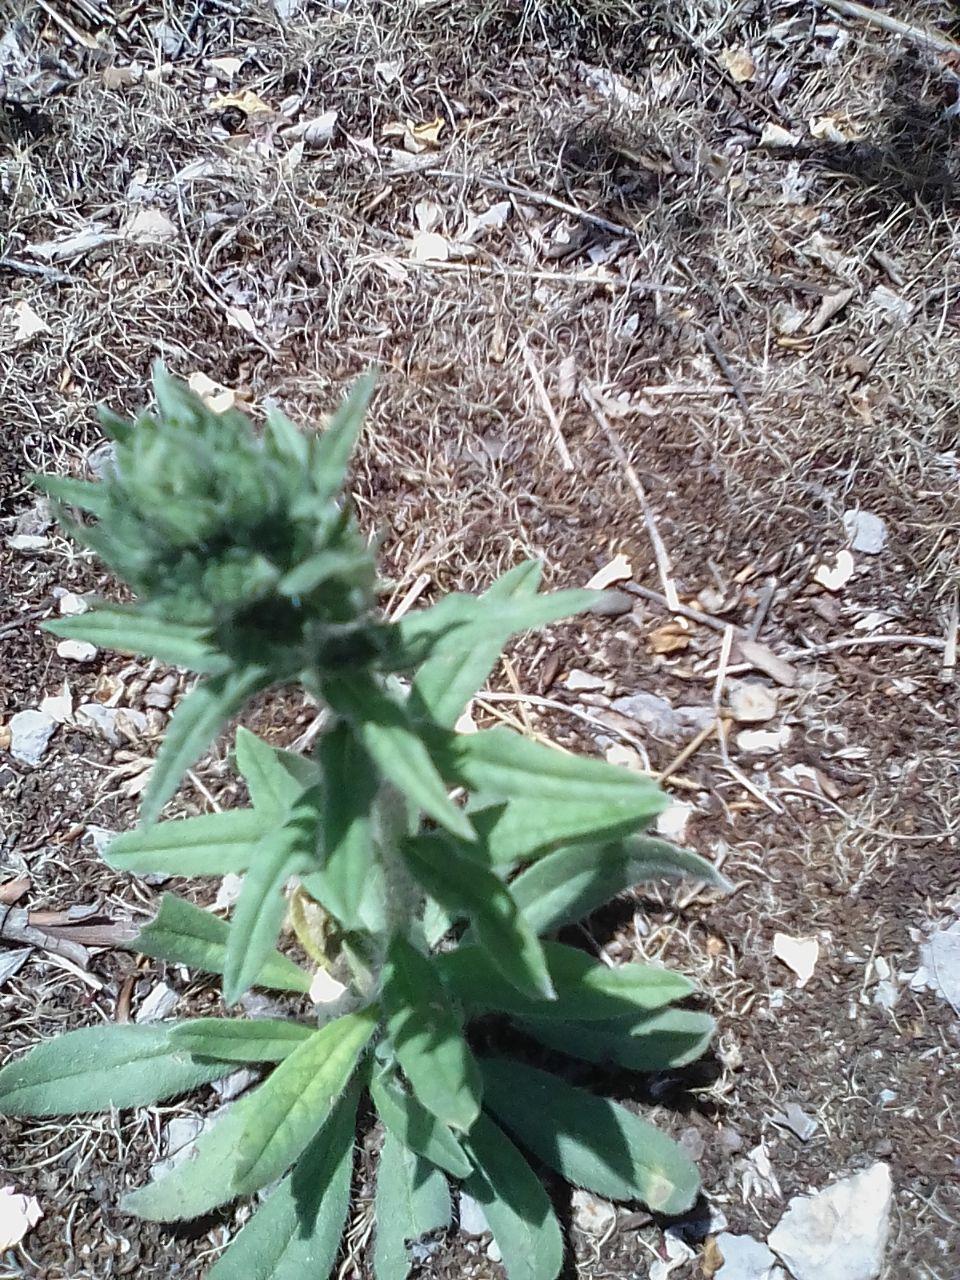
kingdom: Plantae
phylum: Tracheophyta
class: Magnoliopsida
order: Boraginales
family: Boraginaceae
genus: Echium
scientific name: Echium vulgare
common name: Common viper's bugloss
